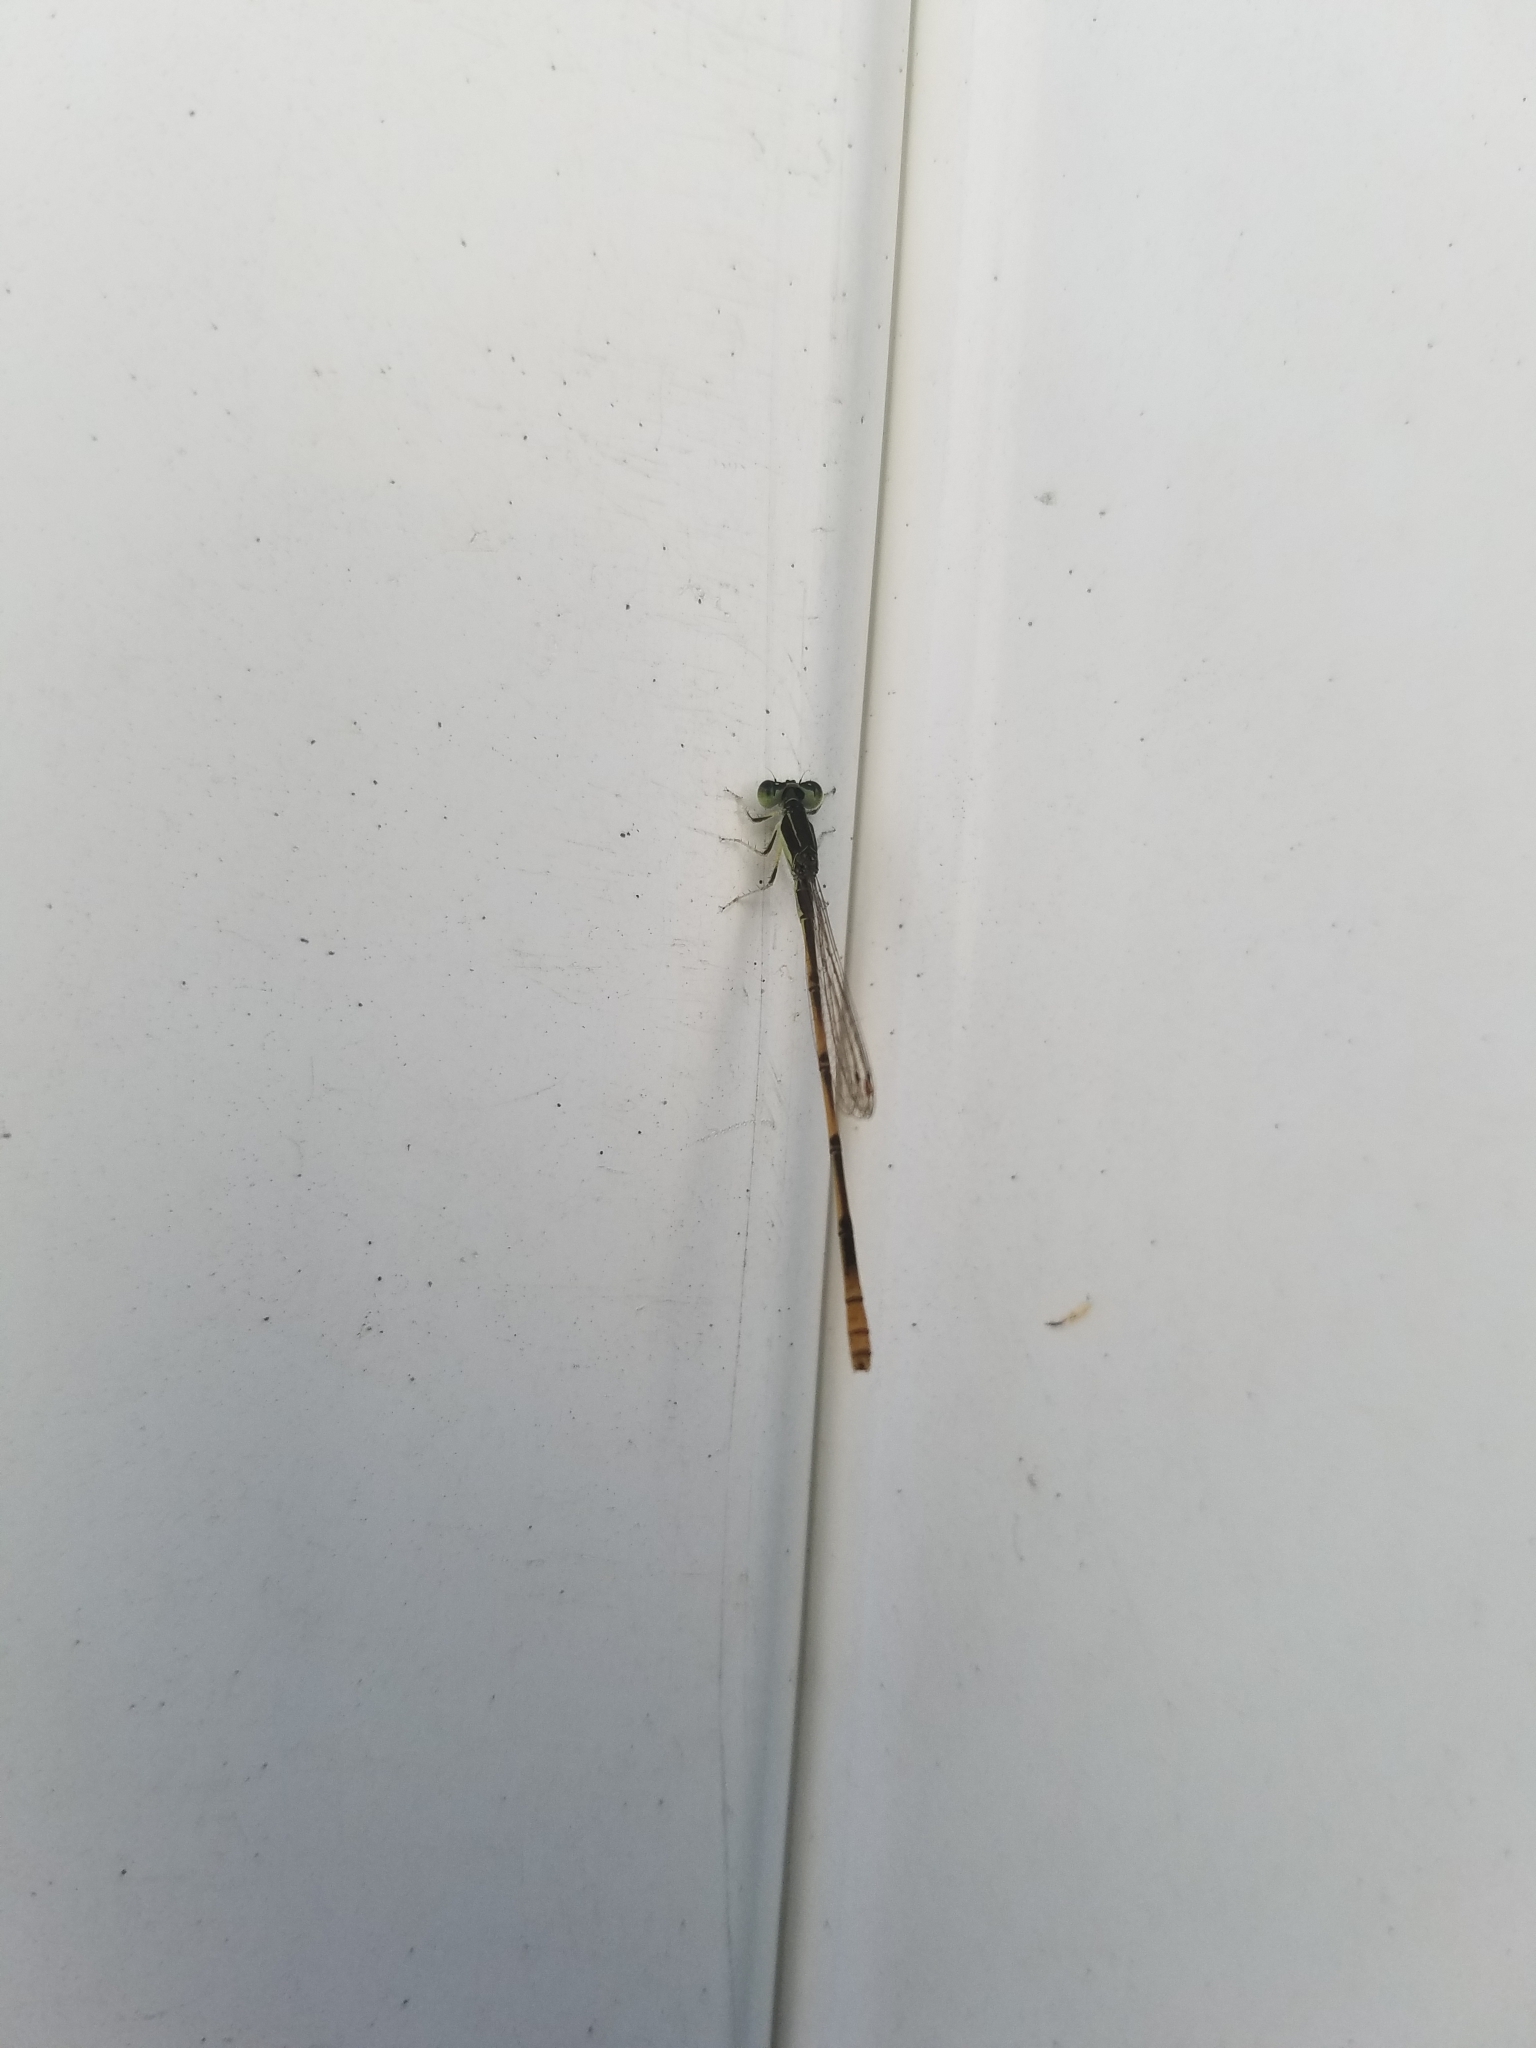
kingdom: Animalia
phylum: Arthropoda
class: Insecta
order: Odonata
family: Coenagrionidae
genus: Ischnura
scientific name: Ischnura hastata
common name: Citrine forktail
